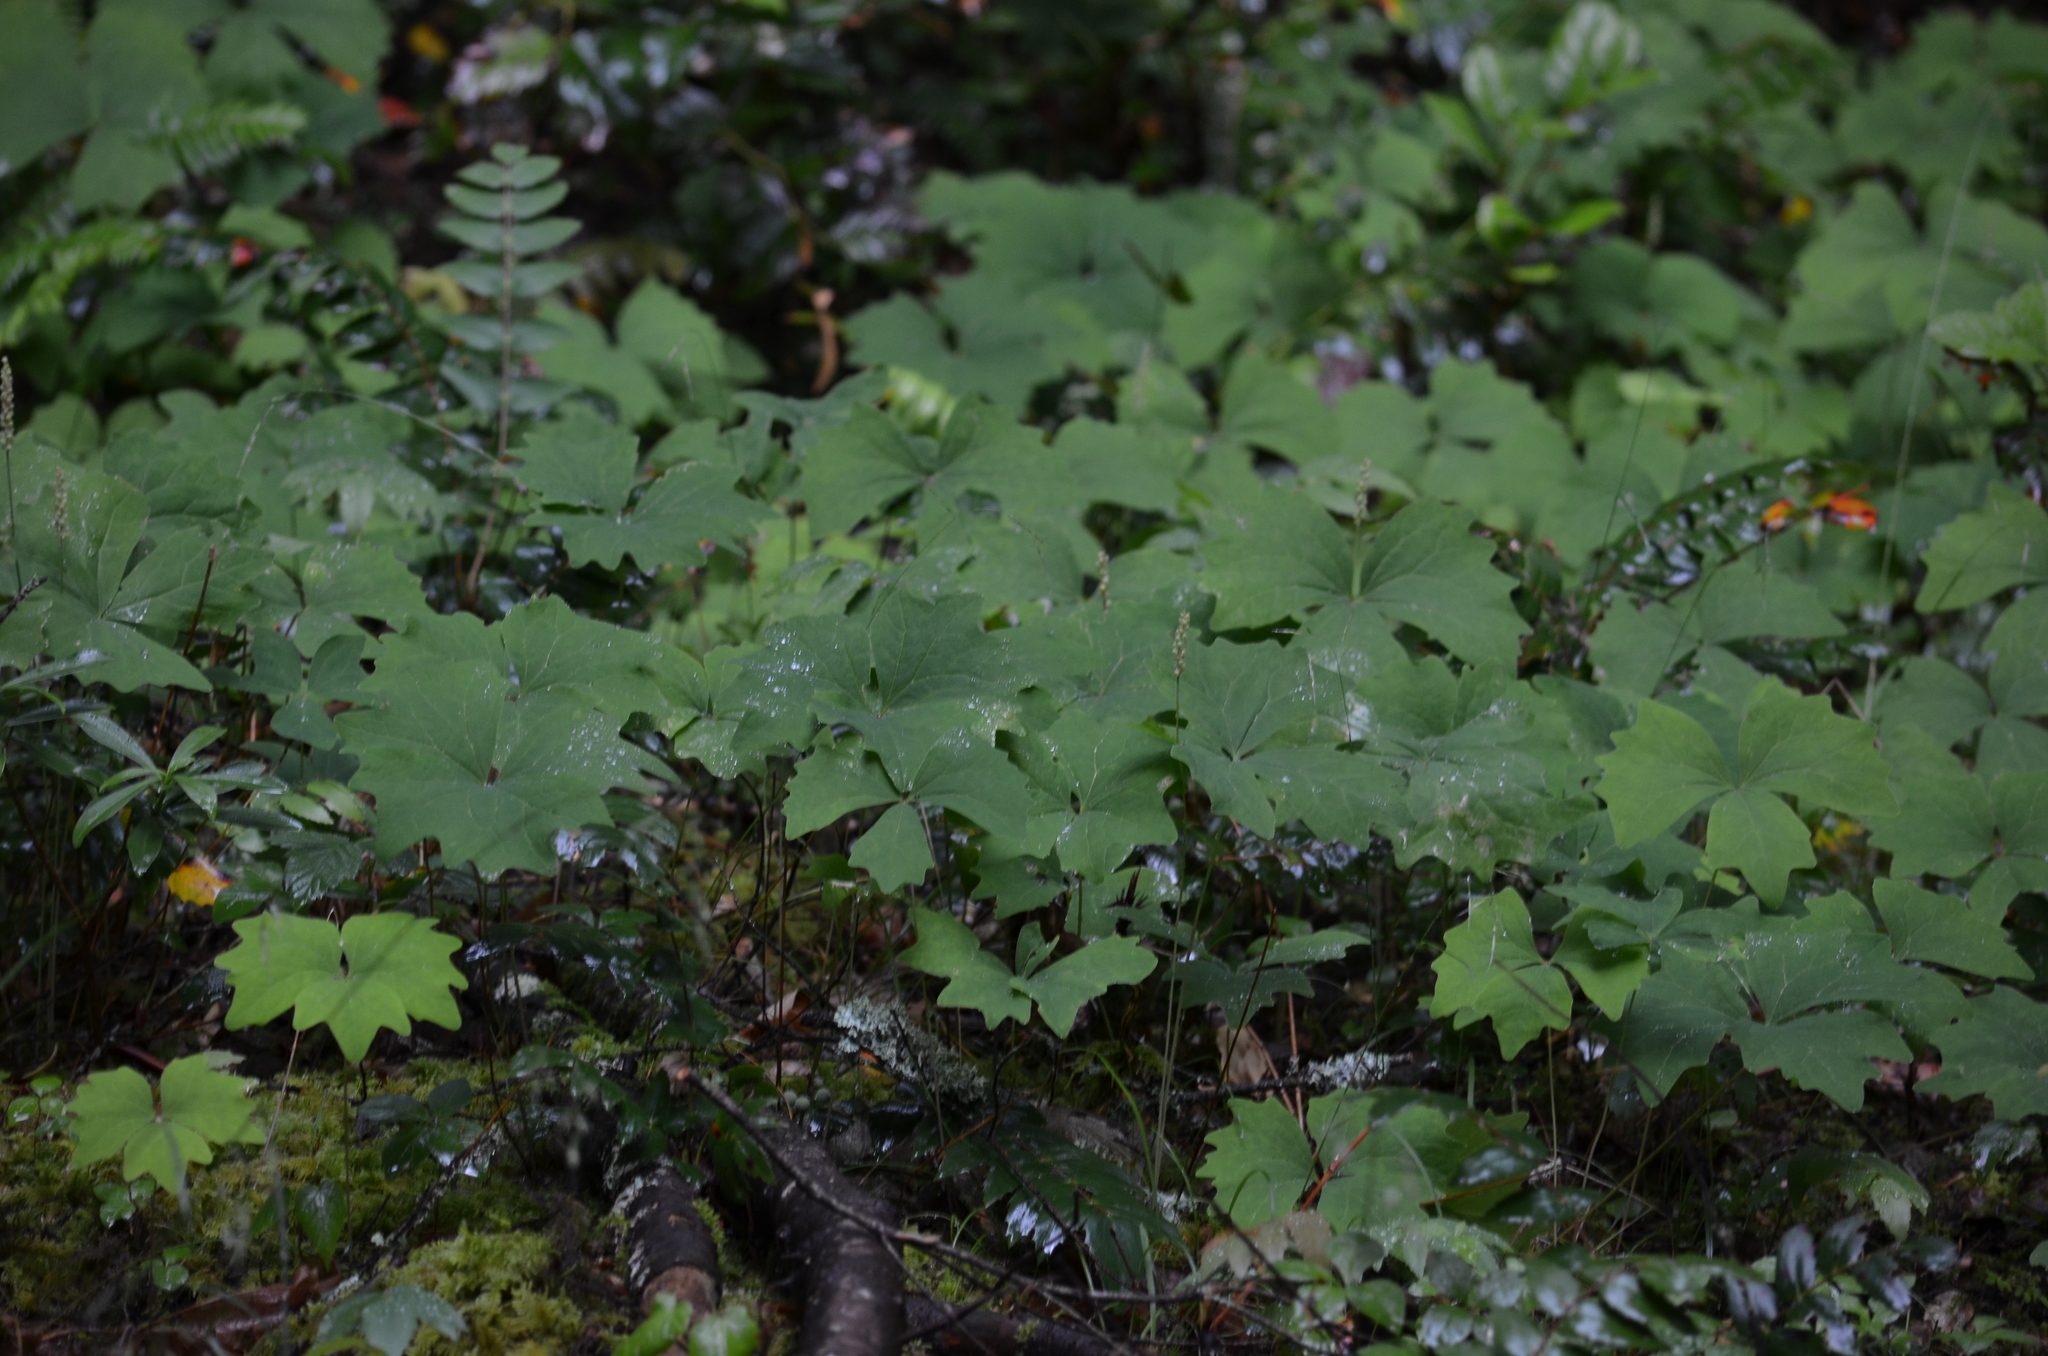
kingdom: Plantae
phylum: Tracheophyta
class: Magnoliopsida
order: Ranunculales
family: Berberidaceae
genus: Achlys
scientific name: Achlys triphylla
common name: Vanilla-leaf
